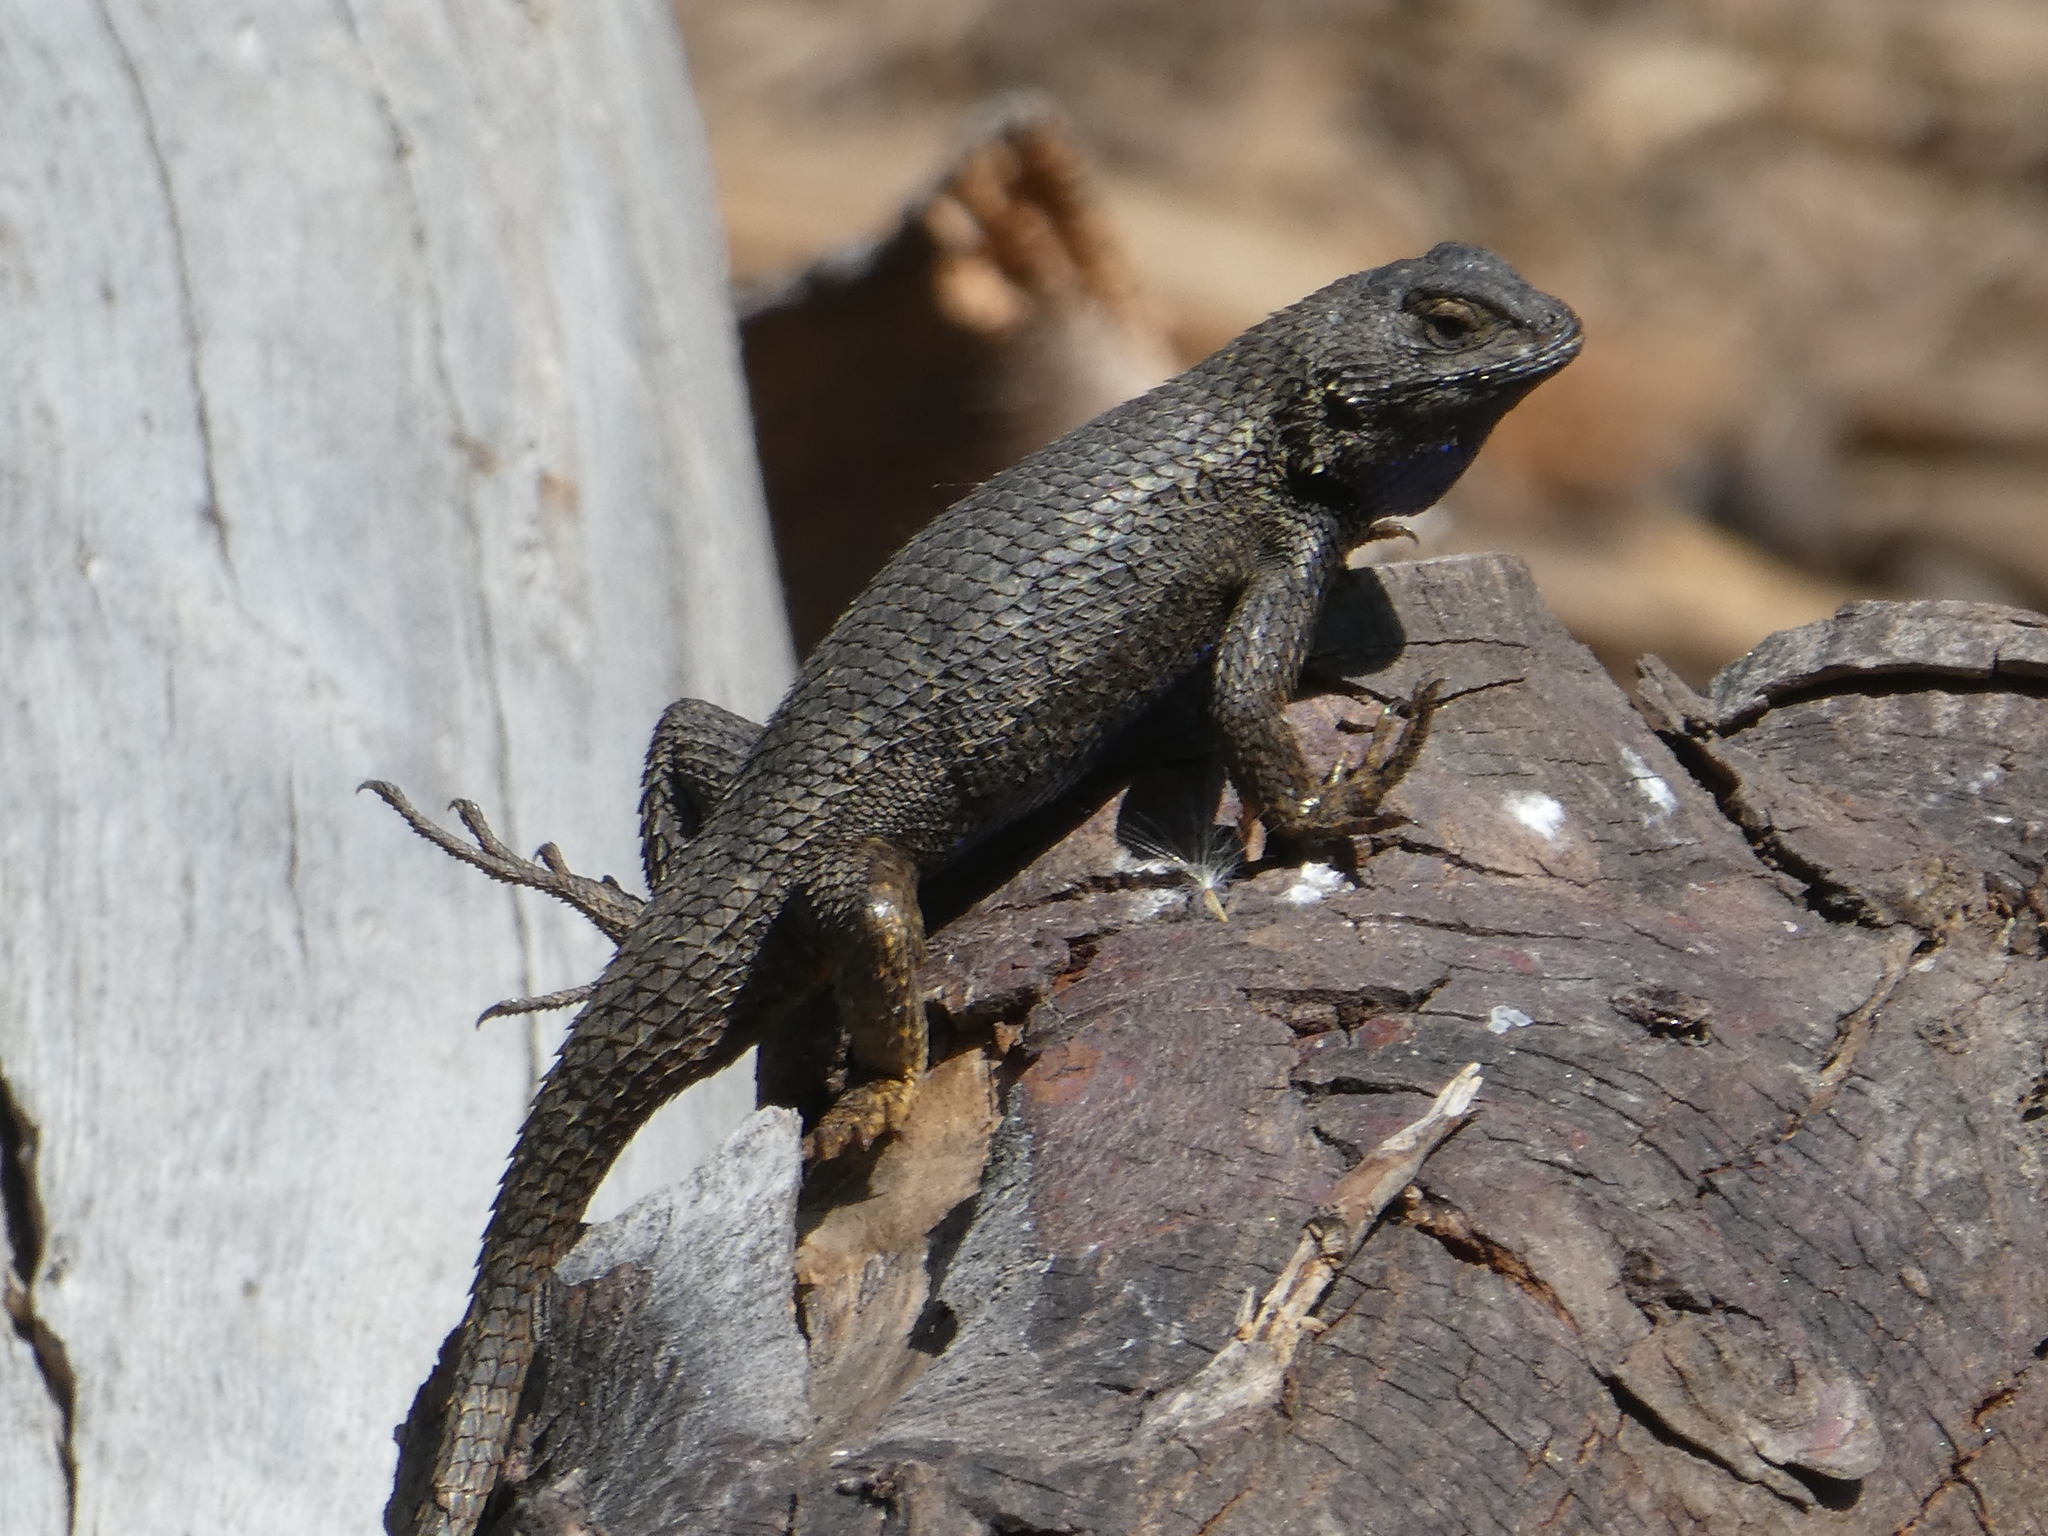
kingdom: Animalia
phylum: Chordata
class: Squamata
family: Phrynosomatidae
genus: Sceloporus
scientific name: Sceloporus occidentalis
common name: Western fence lizard
